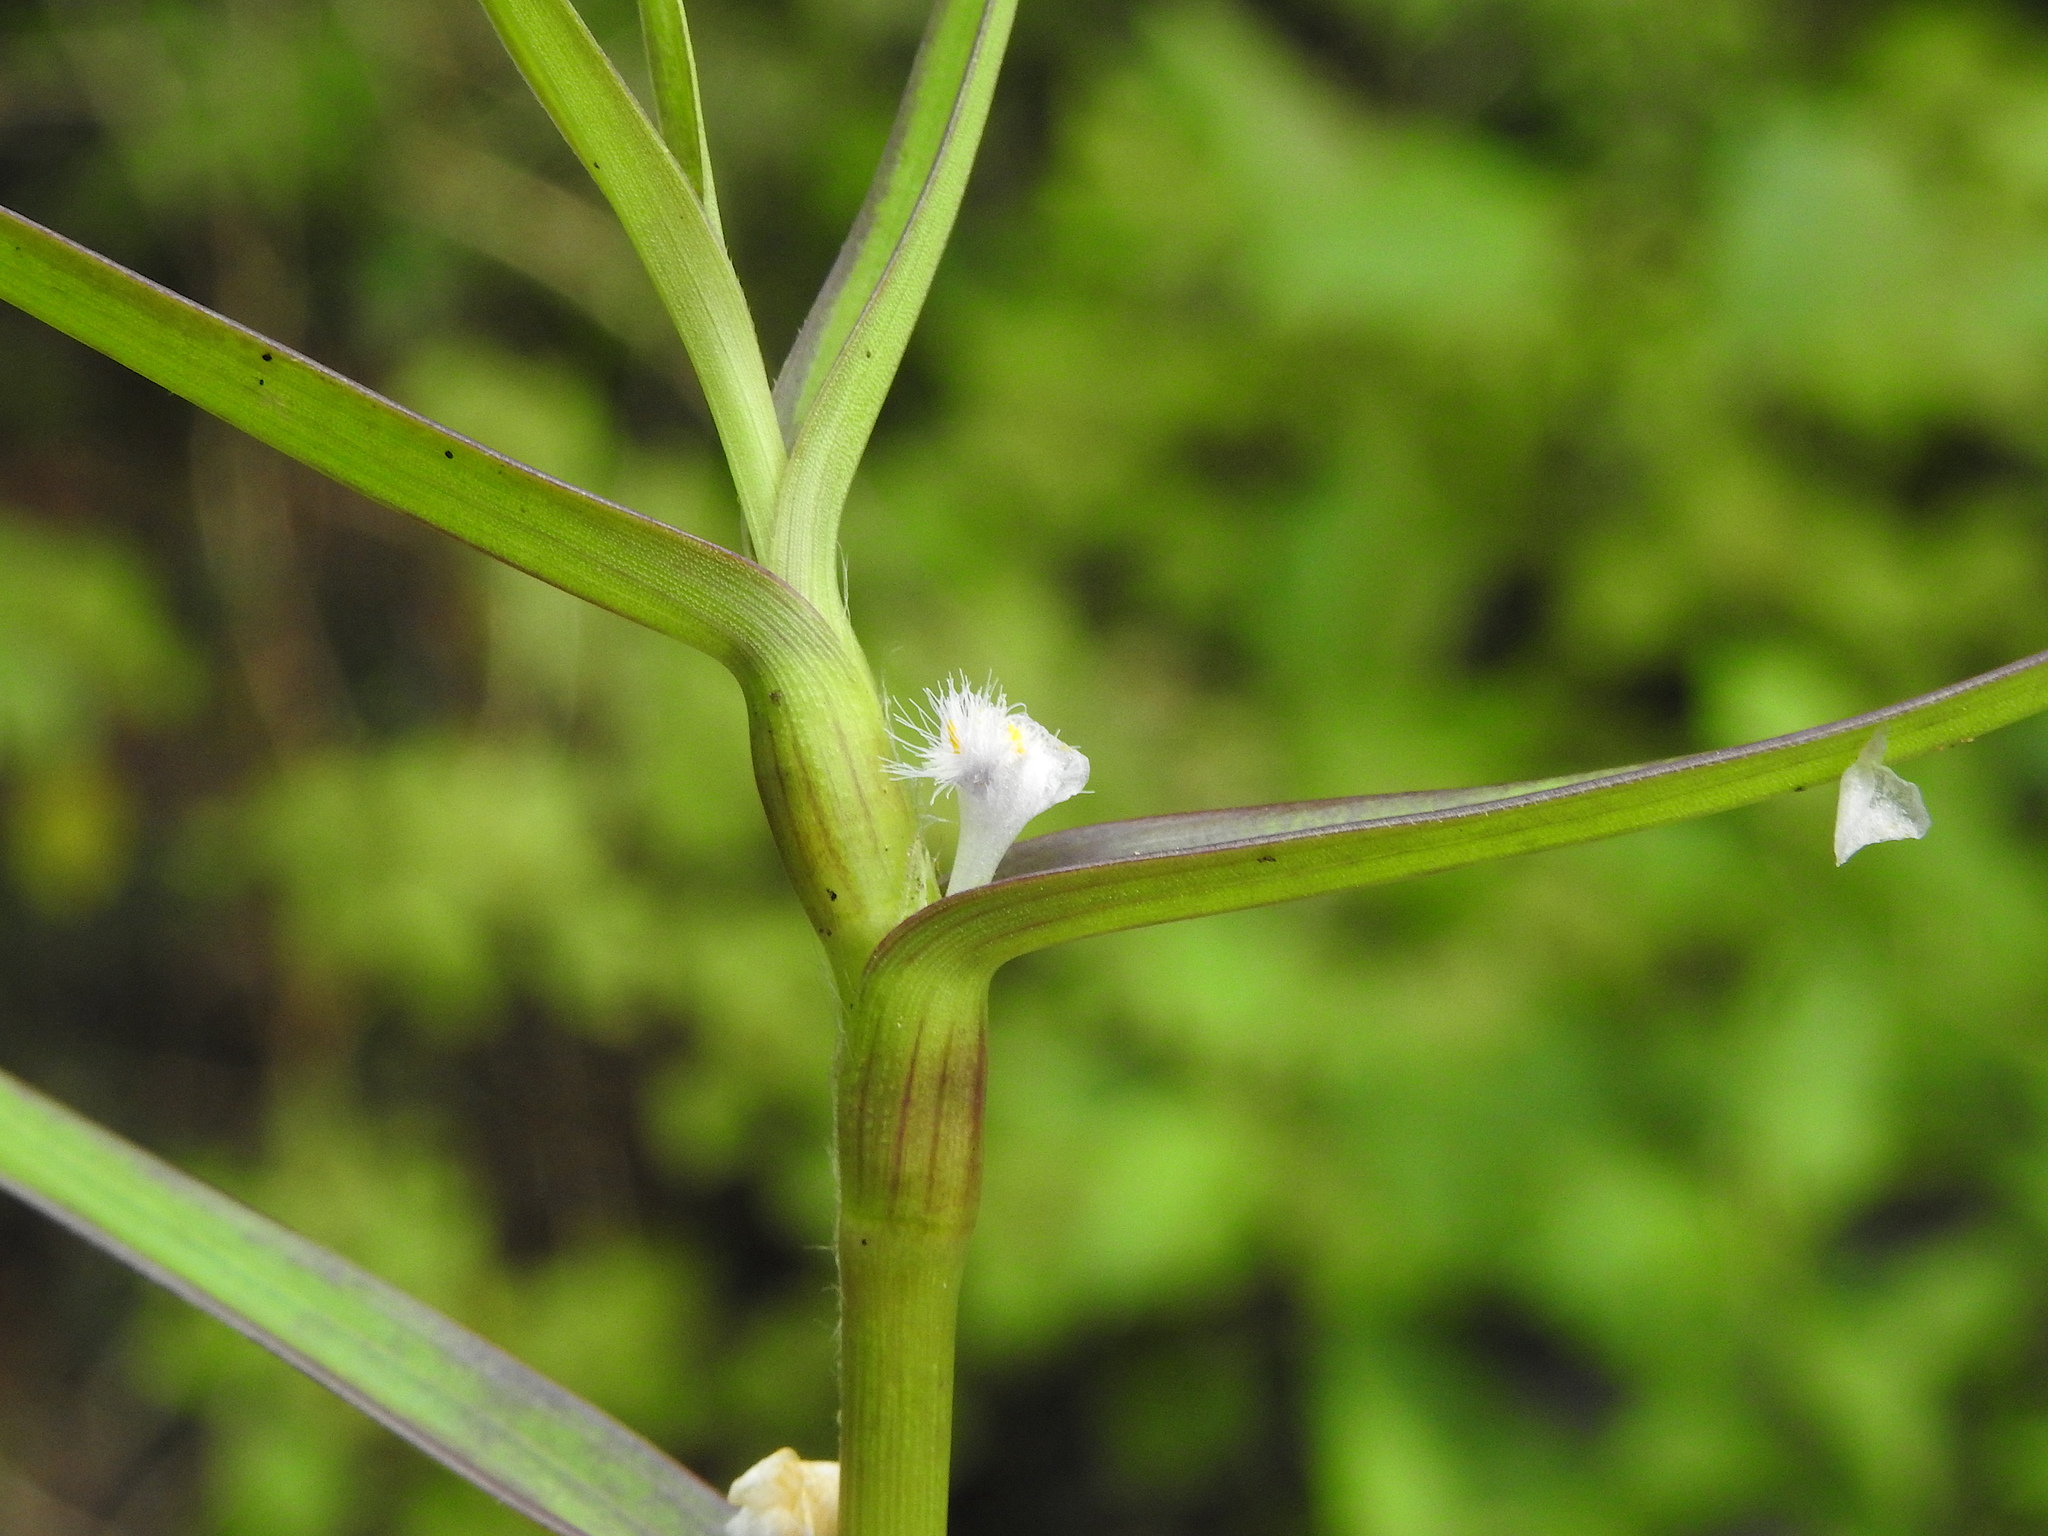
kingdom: Plantae
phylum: Tracheophyta
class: Liliopsida
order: Commelinales
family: Commelinaceae
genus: Cyanotis
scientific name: Cyanotis axillaris
